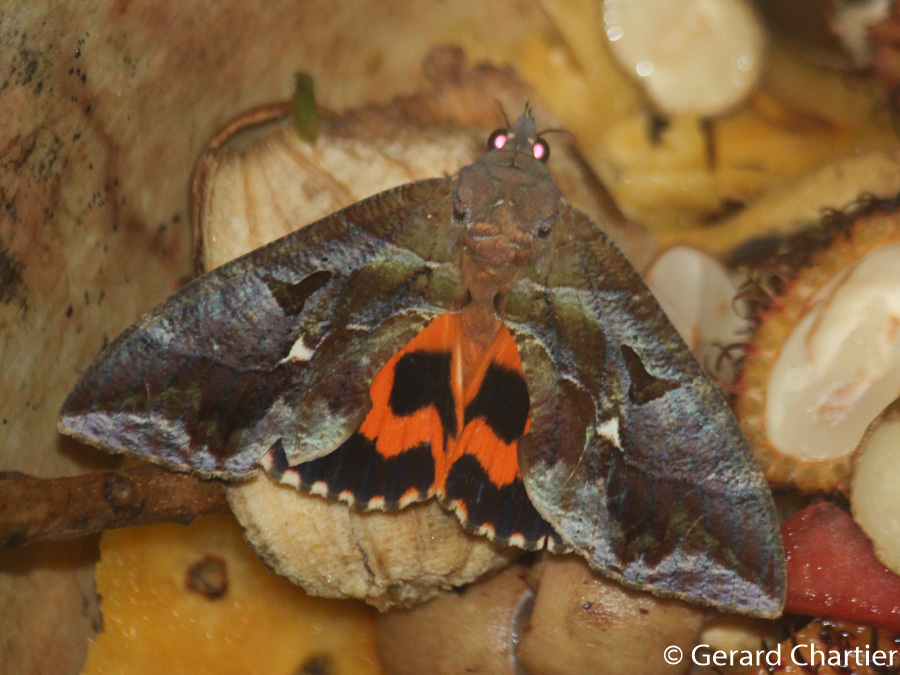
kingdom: Animalia
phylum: Arthropoda
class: Insecta
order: Lepidoptera
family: Erebidae
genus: Eudocima
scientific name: Eudocima phalonia
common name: Wasp
